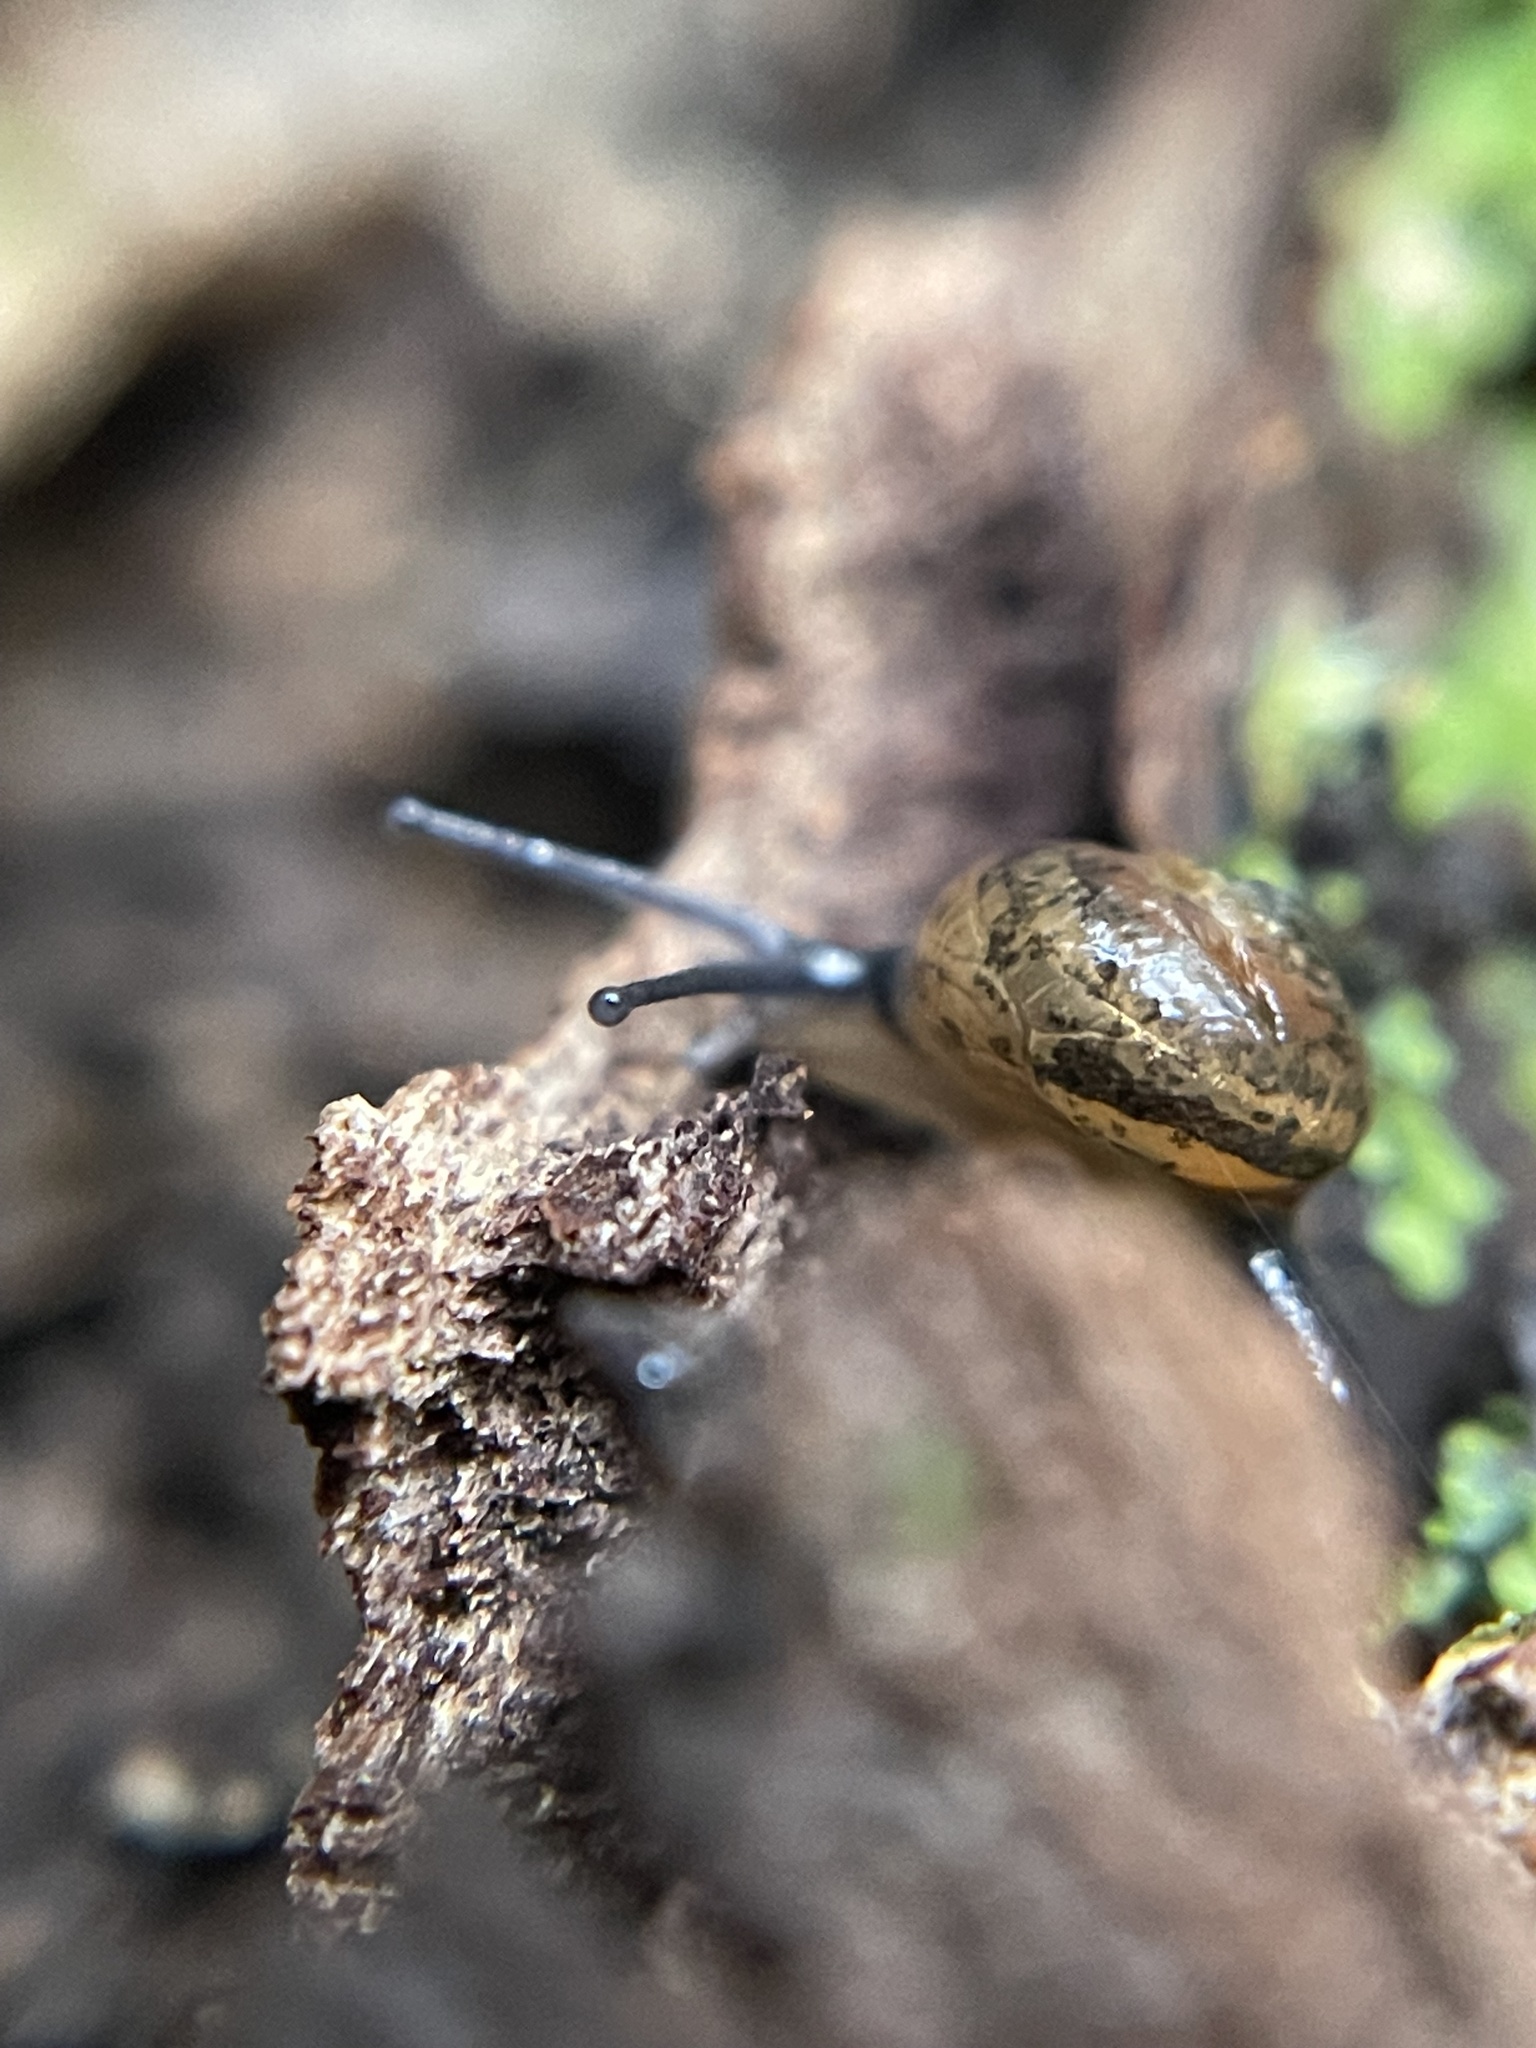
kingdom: Animalia
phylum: Mollusca
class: Gastropoda
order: Stylommatophora
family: Helicarionidae
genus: Ovachlamys
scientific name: Ovachlamys fulgens
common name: Jumping snail
